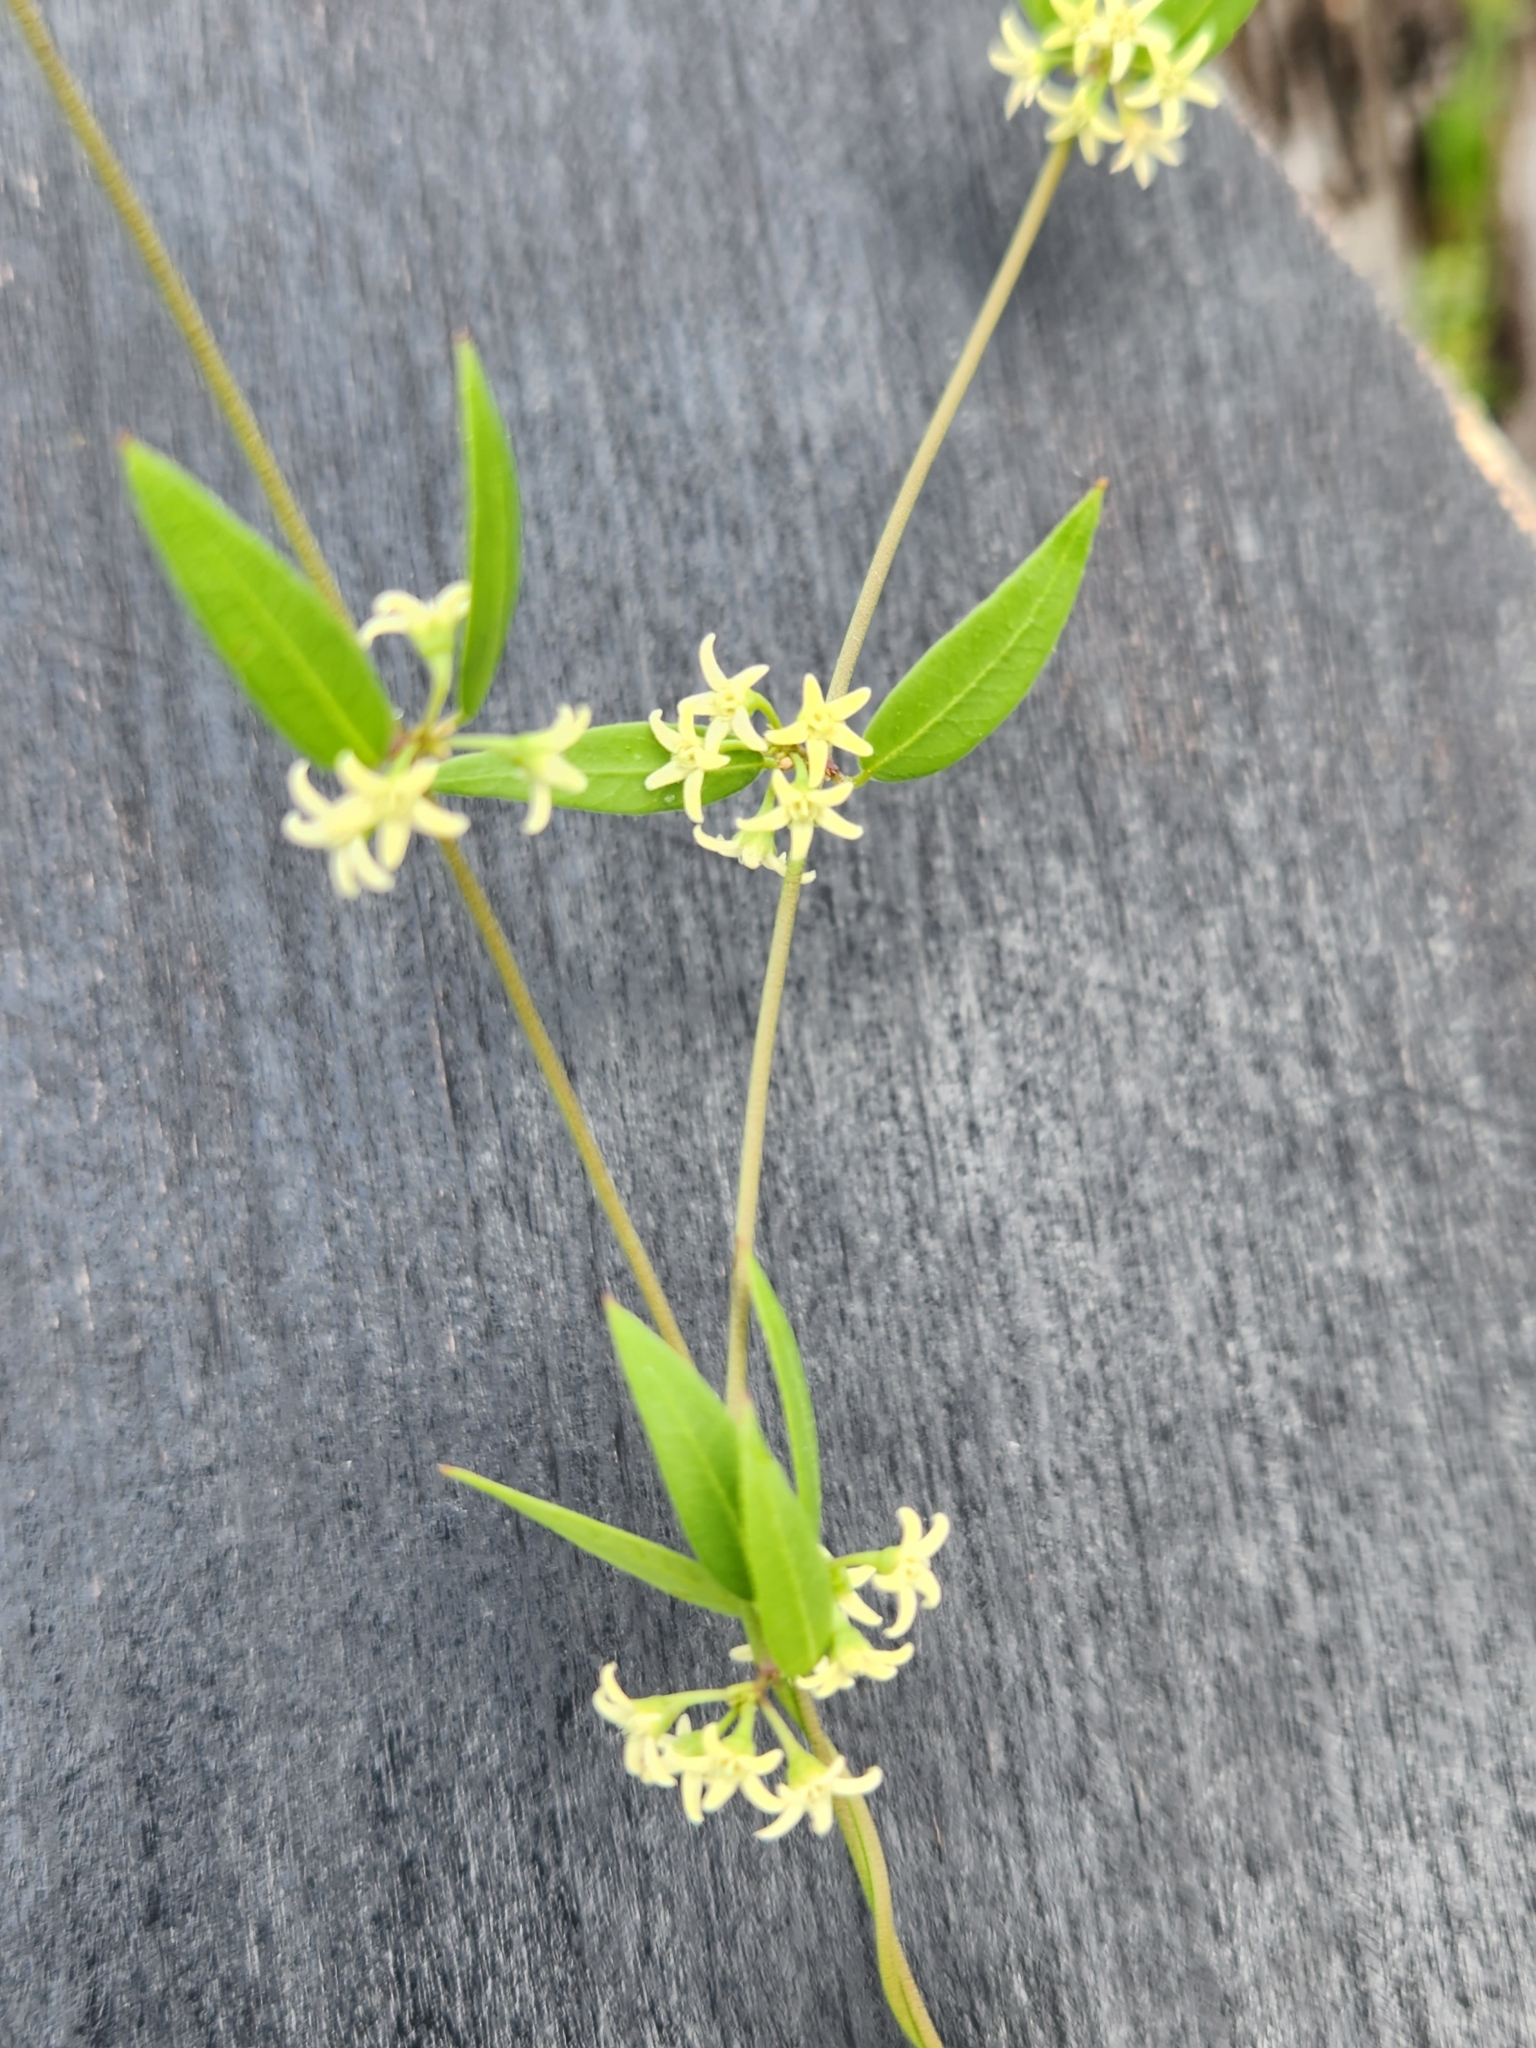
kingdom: Plantae
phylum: Tracheophyta
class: Magnoliopsida
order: Gentianales
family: Apocynaceae
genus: Metastelma
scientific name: Metastelma palmeri
